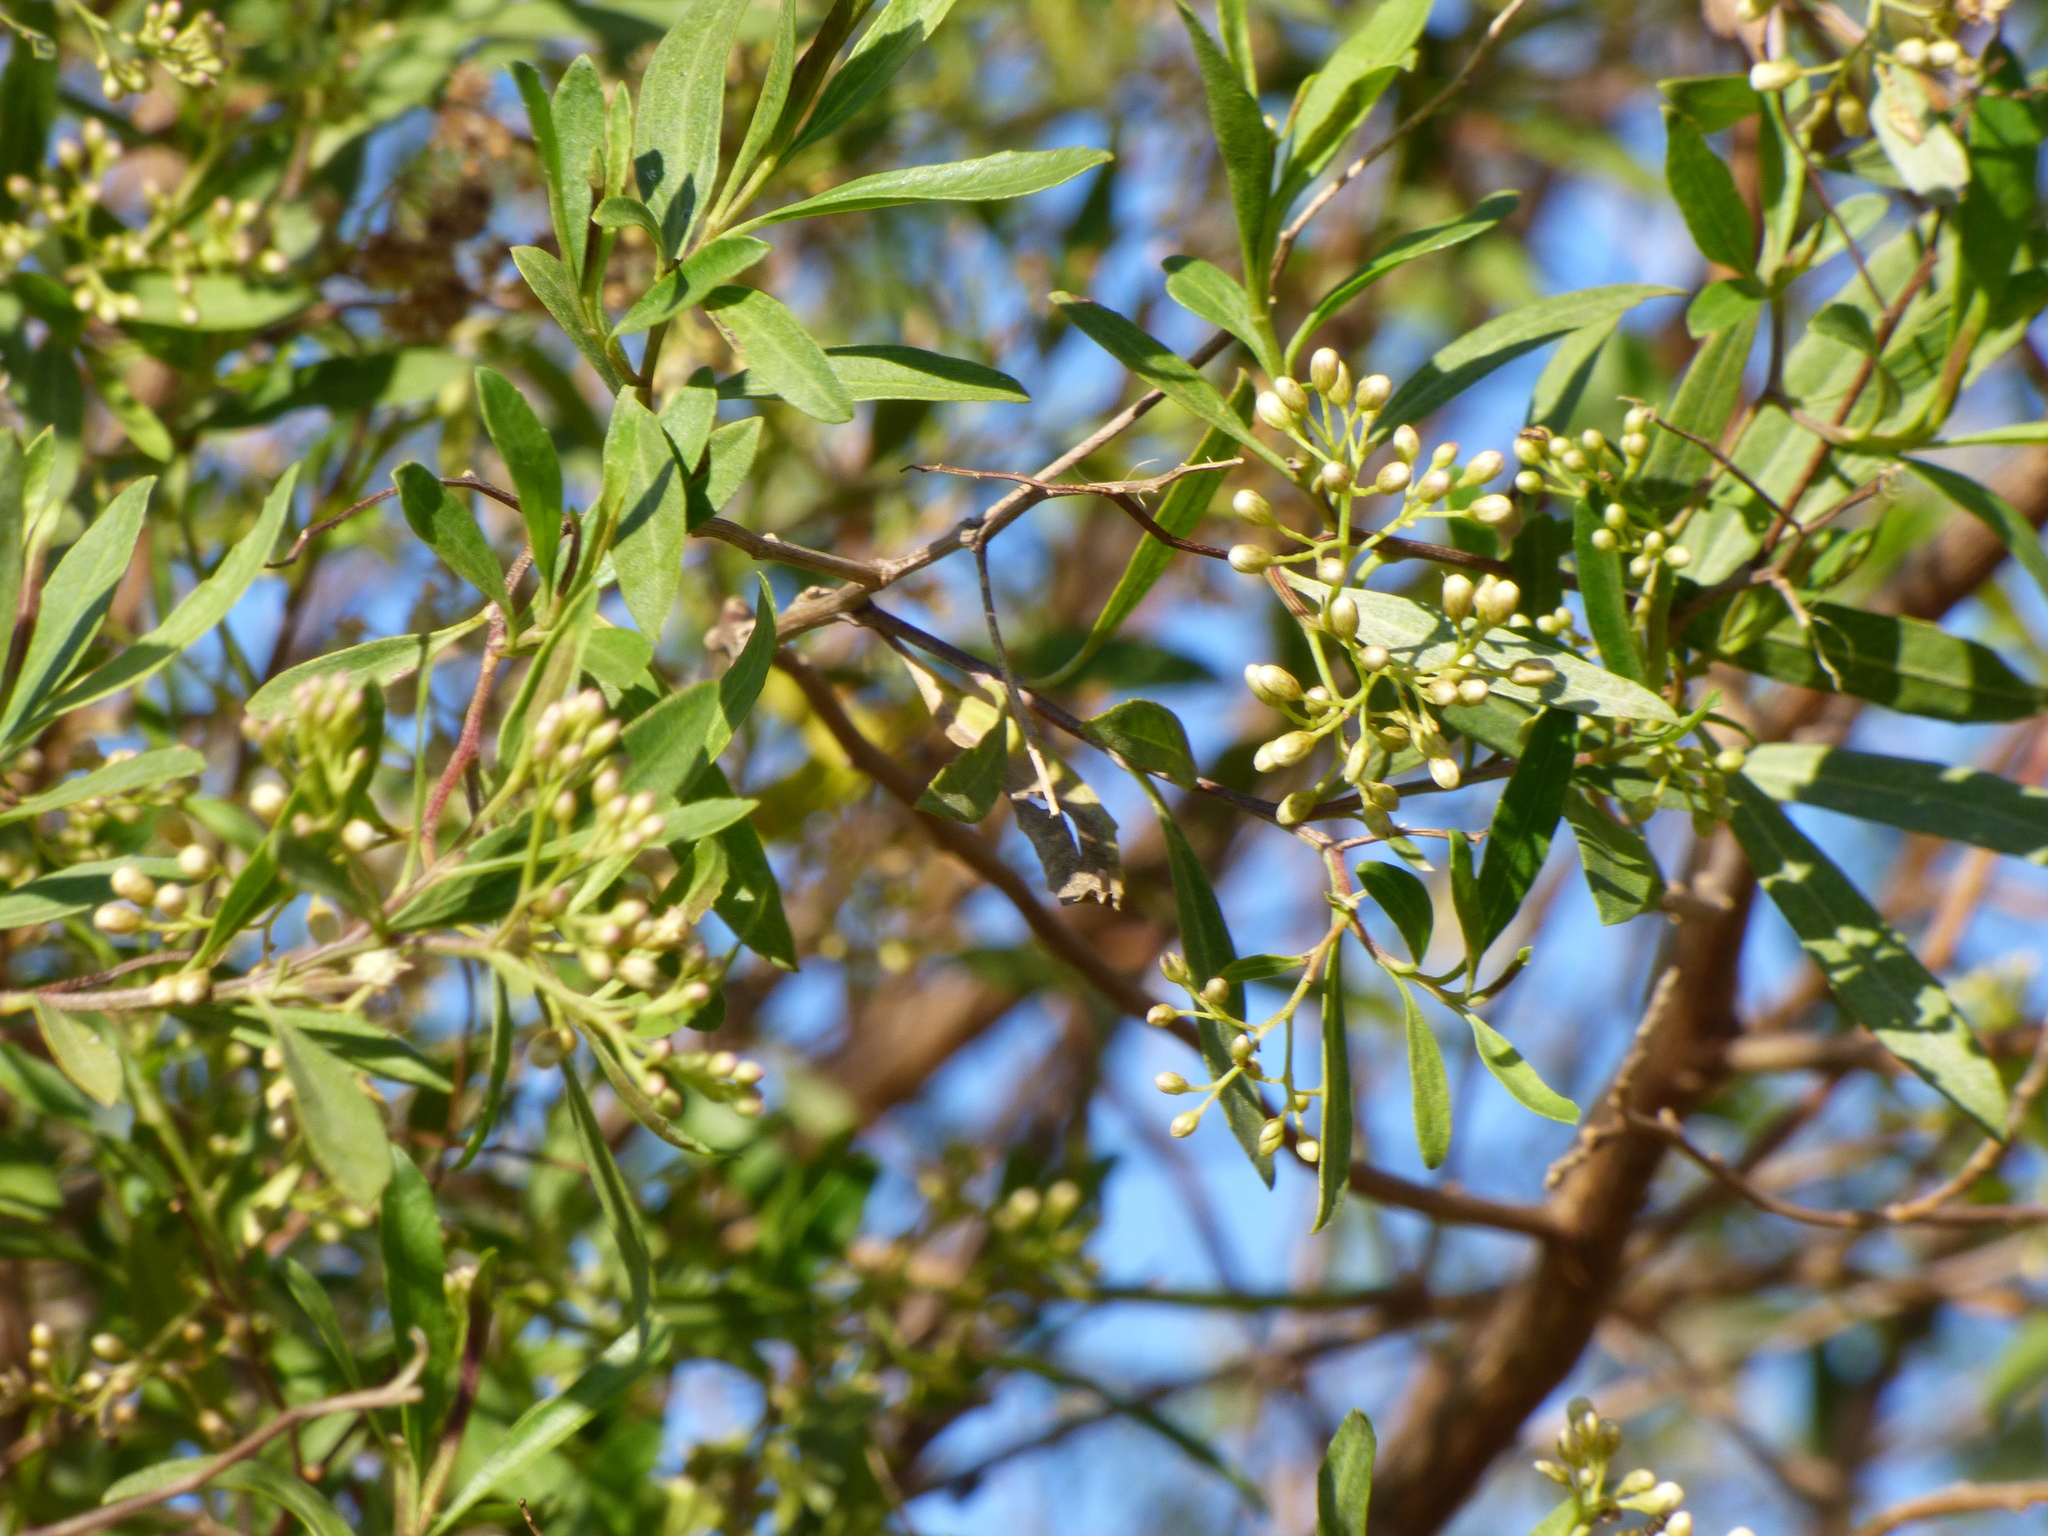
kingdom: Plantae
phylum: Tracheophyta
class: Magnoliopsida
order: Asterales
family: Asteraceae
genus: Baccharis
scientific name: Baccharis salicifolia
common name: Sticky baccharis
